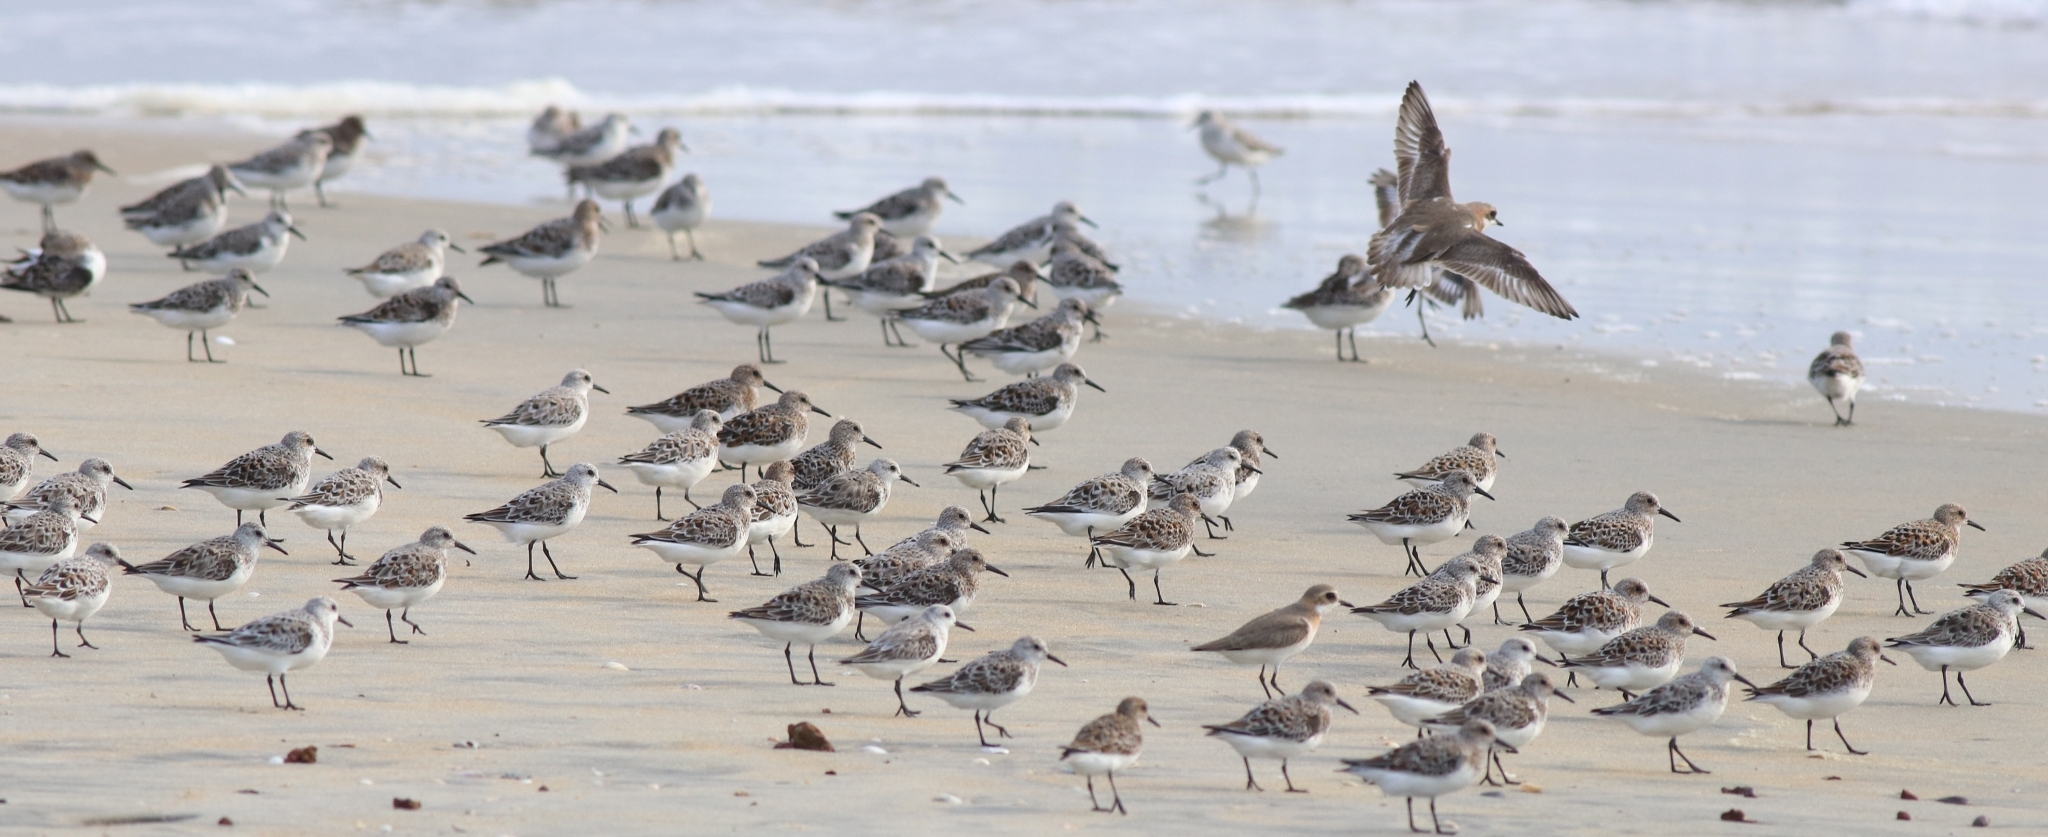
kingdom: Animalia
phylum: Chordata
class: Aves
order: Charadriiformes
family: Scolopacidae
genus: Calidris
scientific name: Calidris alba
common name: Sanderling
